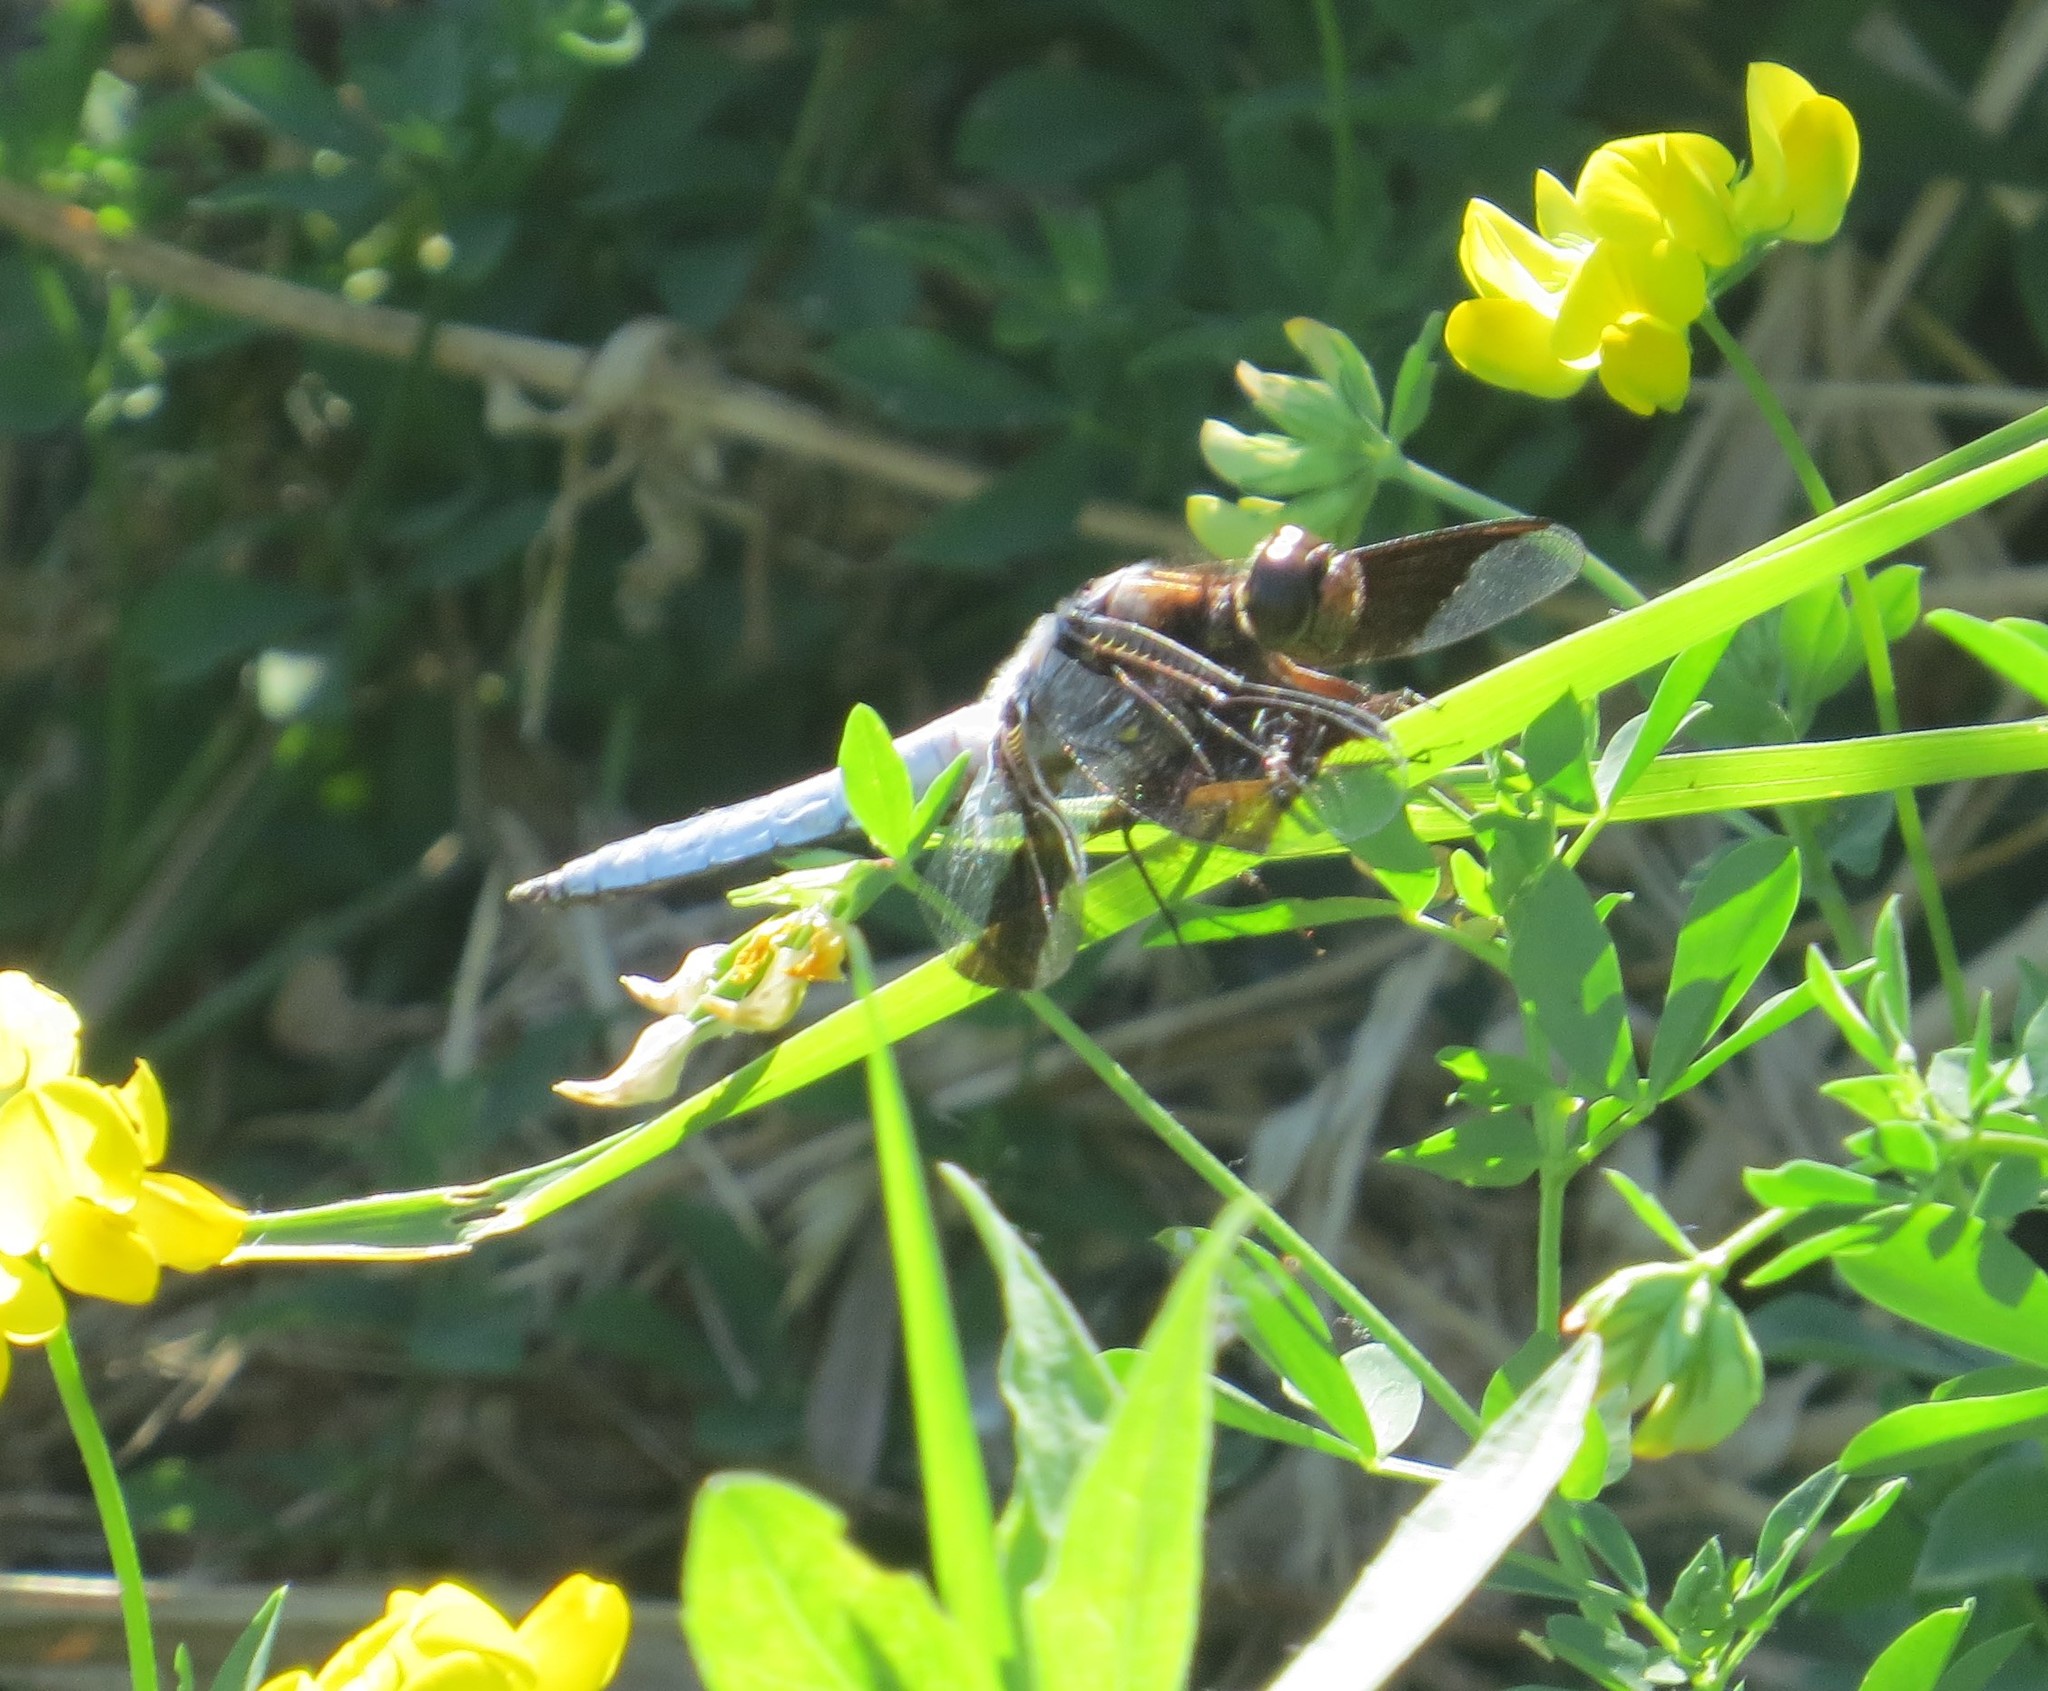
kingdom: Animalia
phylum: Arthropoda
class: Insecta
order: Odonata
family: Libellulidae
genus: Plathemis
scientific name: Plathemis lydia
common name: Common whitetail
